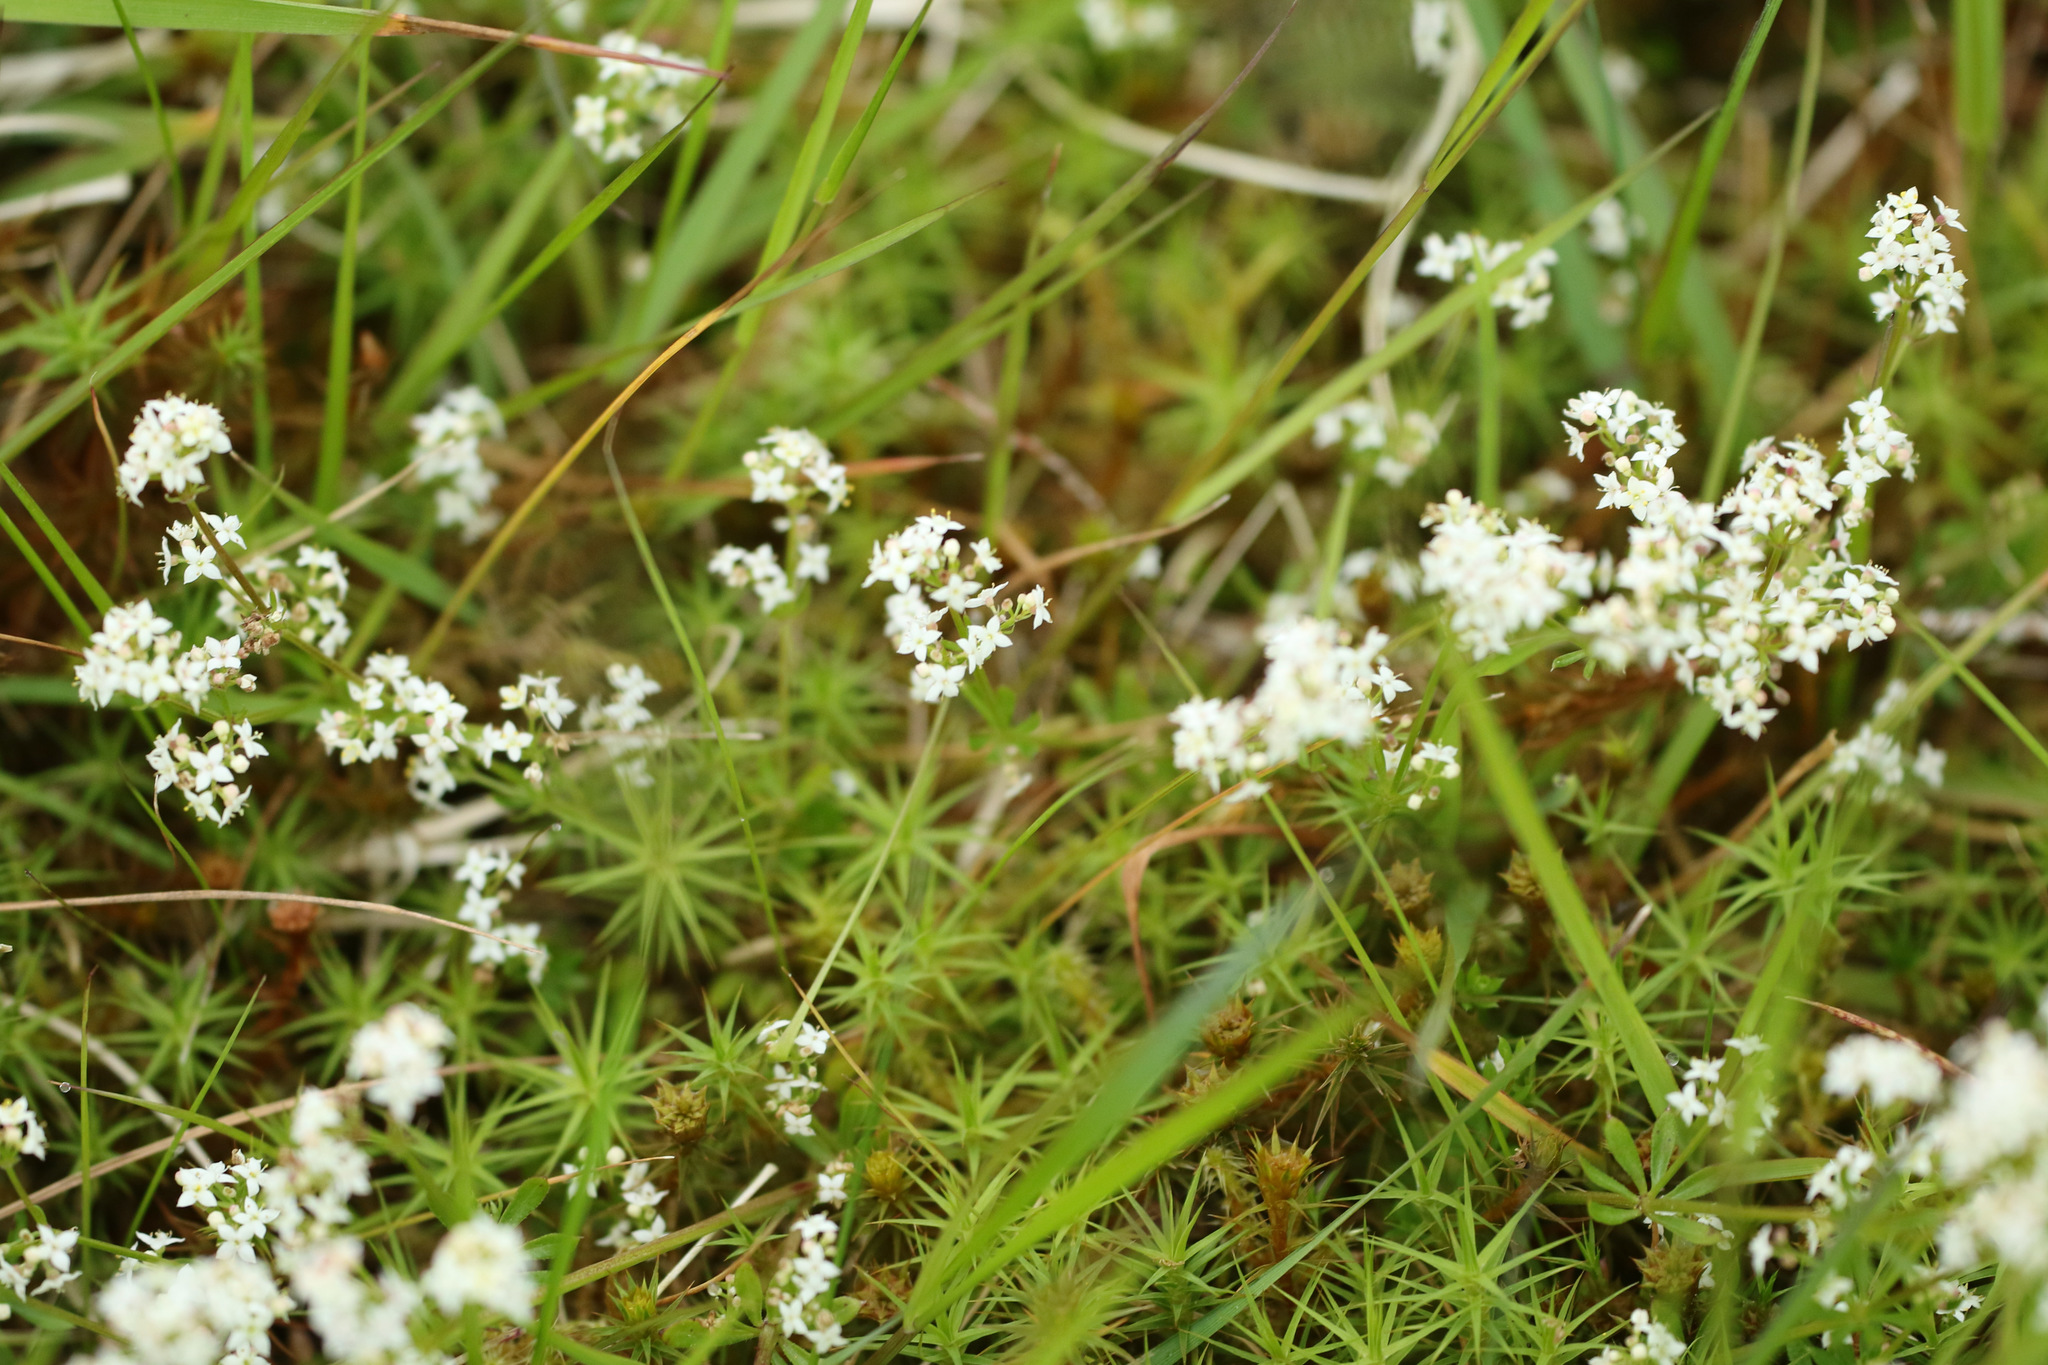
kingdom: Plantae
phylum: Tracheophyta
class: Magnoliopsida
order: Gentianales
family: Rubiaceae
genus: Galium
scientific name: Galium saxatile
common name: Heath bedstraw
